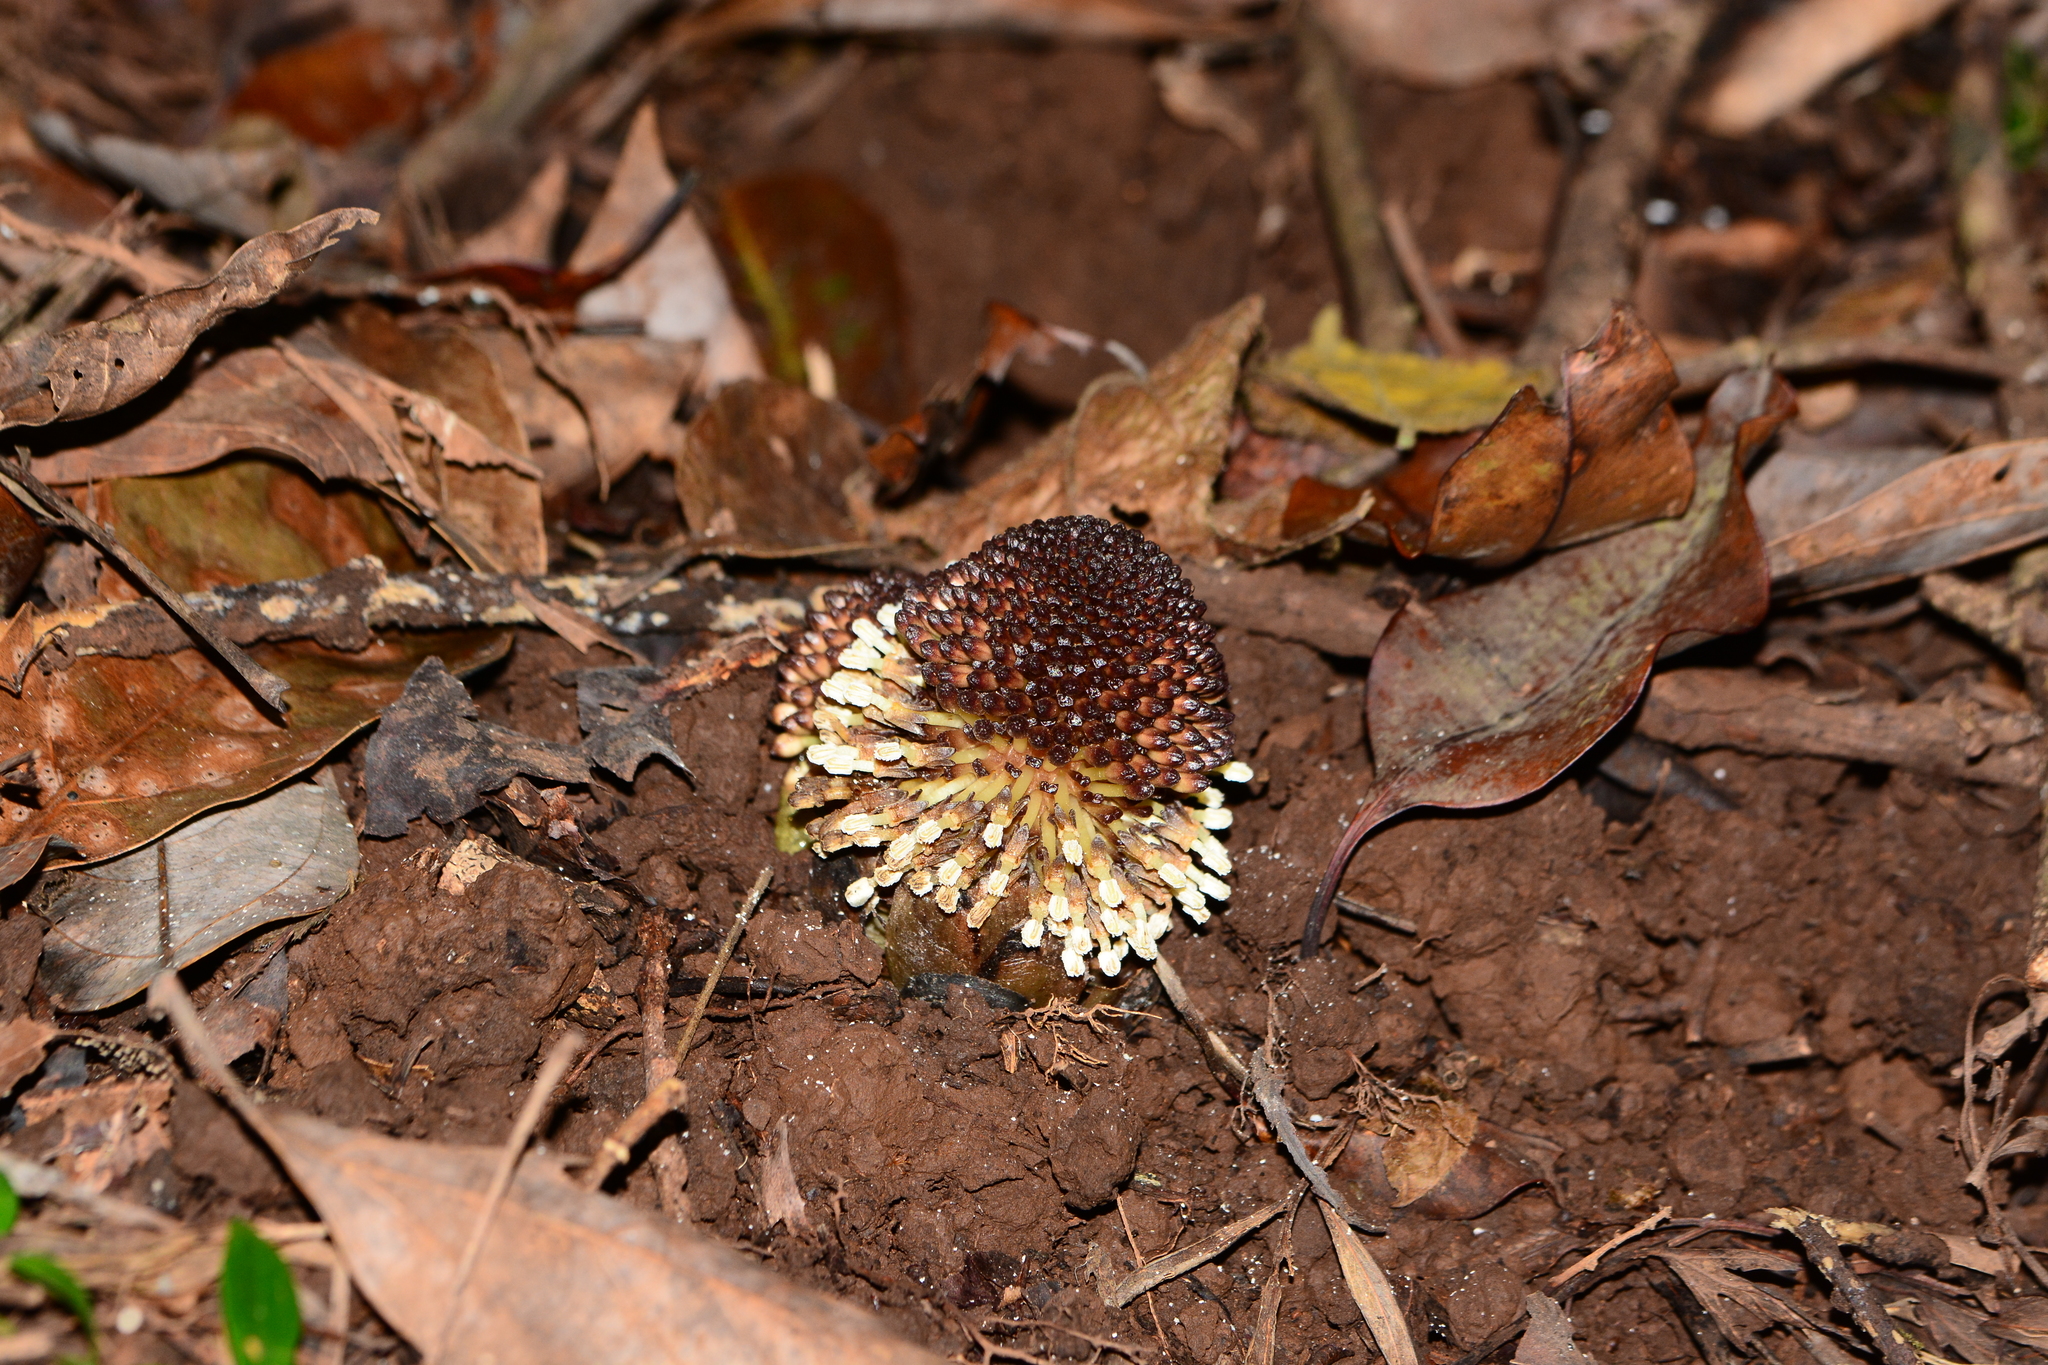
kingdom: Plantae
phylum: Tracheophyta
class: Magnoliopsida
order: Santalales
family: Balanophoraceae
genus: Balanophora
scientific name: Balanophora fungosa
